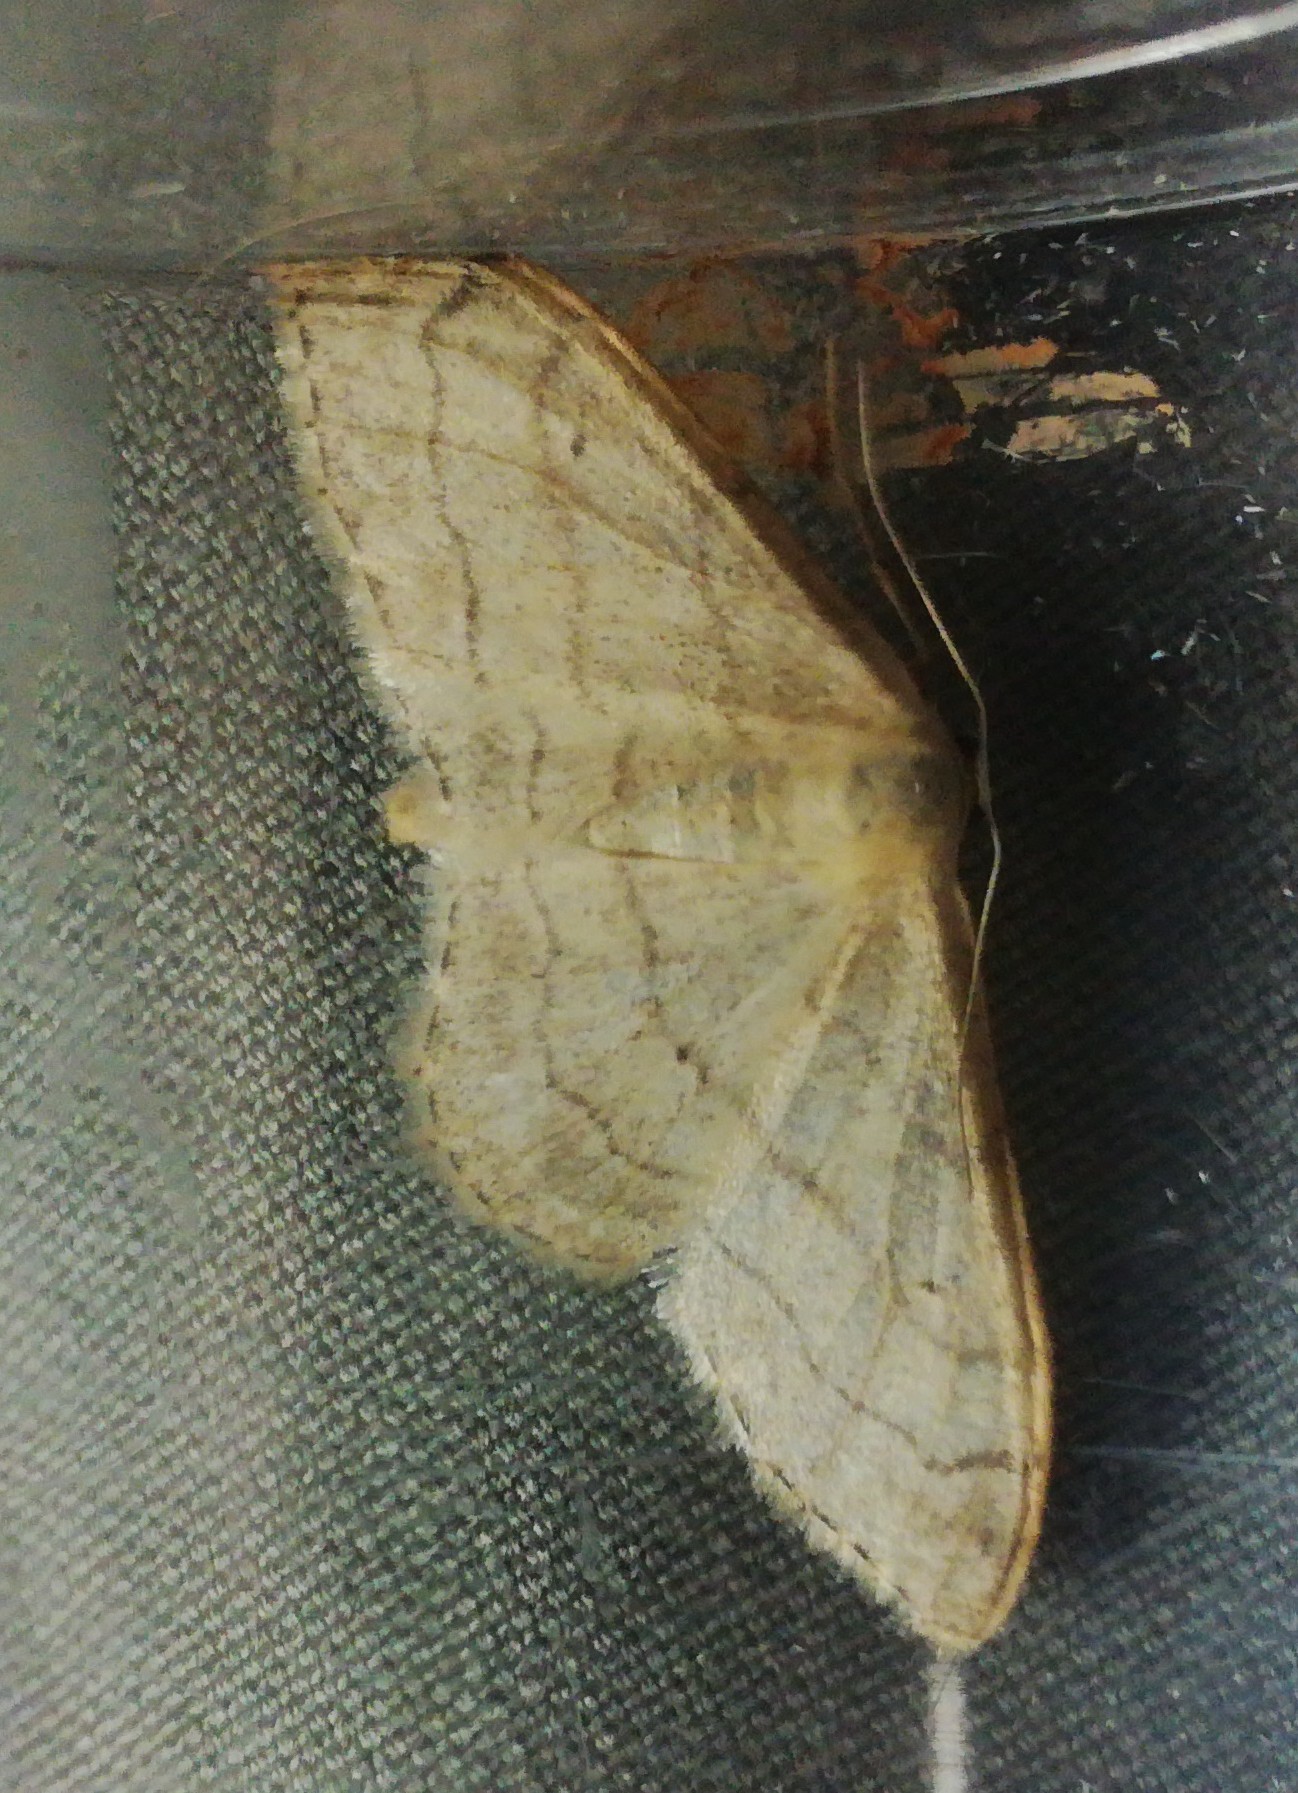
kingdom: Animalia
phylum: Arthropoda
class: Insecta
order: Lepidoptera
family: Geometridae
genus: Idaea
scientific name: Idaea aversata
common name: Riband wave
